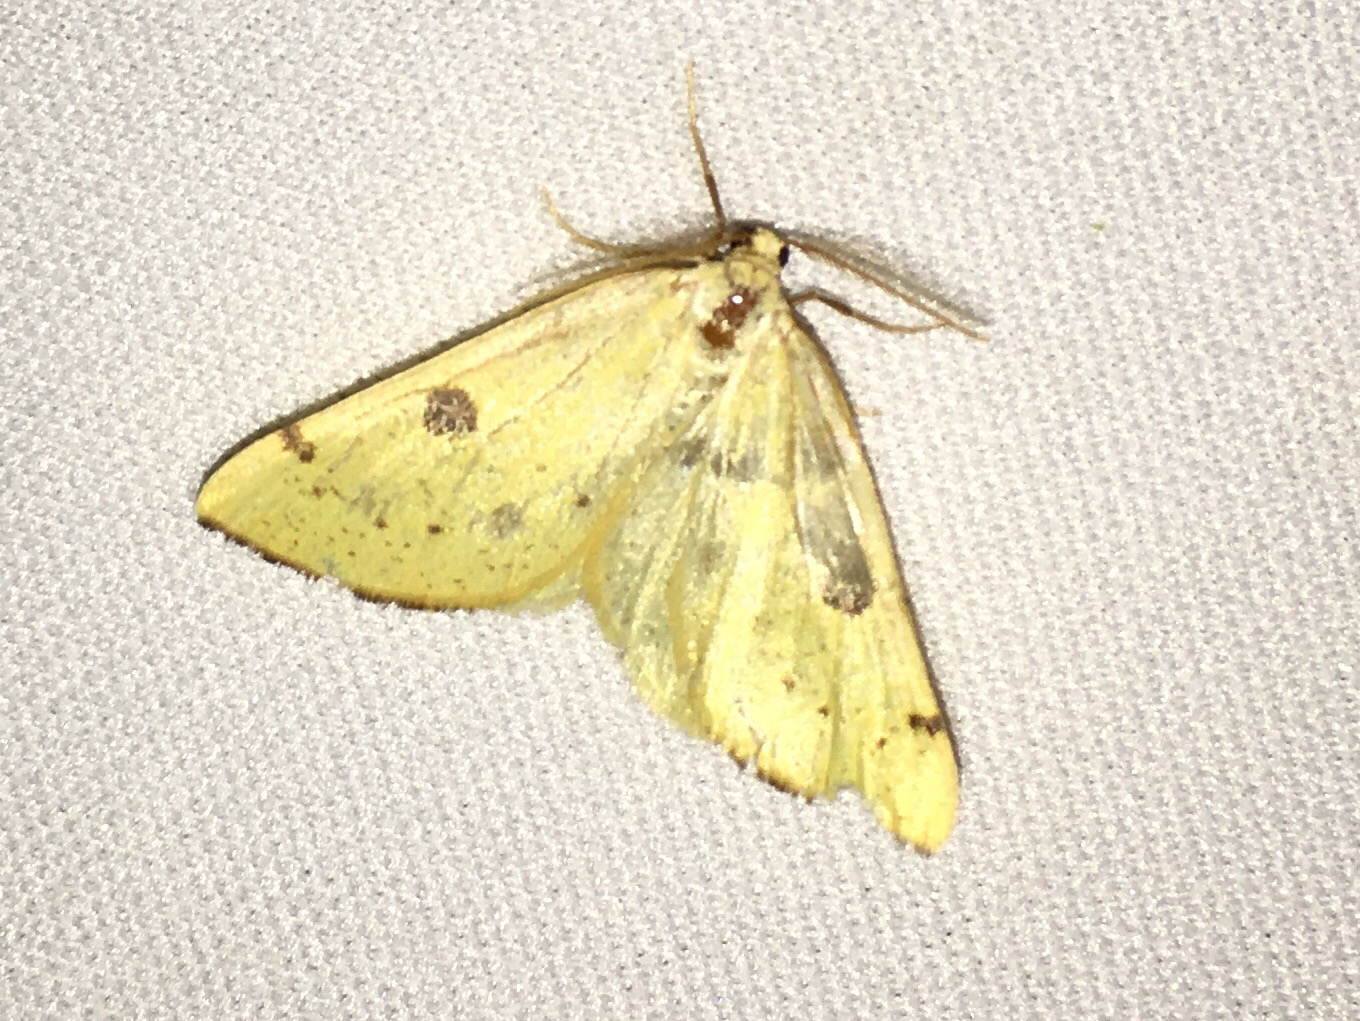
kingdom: Animalia
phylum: Arthropoda
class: Insecta
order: Lepidoptera
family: Geometridae
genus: Hesperumia
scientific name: Hesperumia sulphuraria
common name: Sulphur moth
